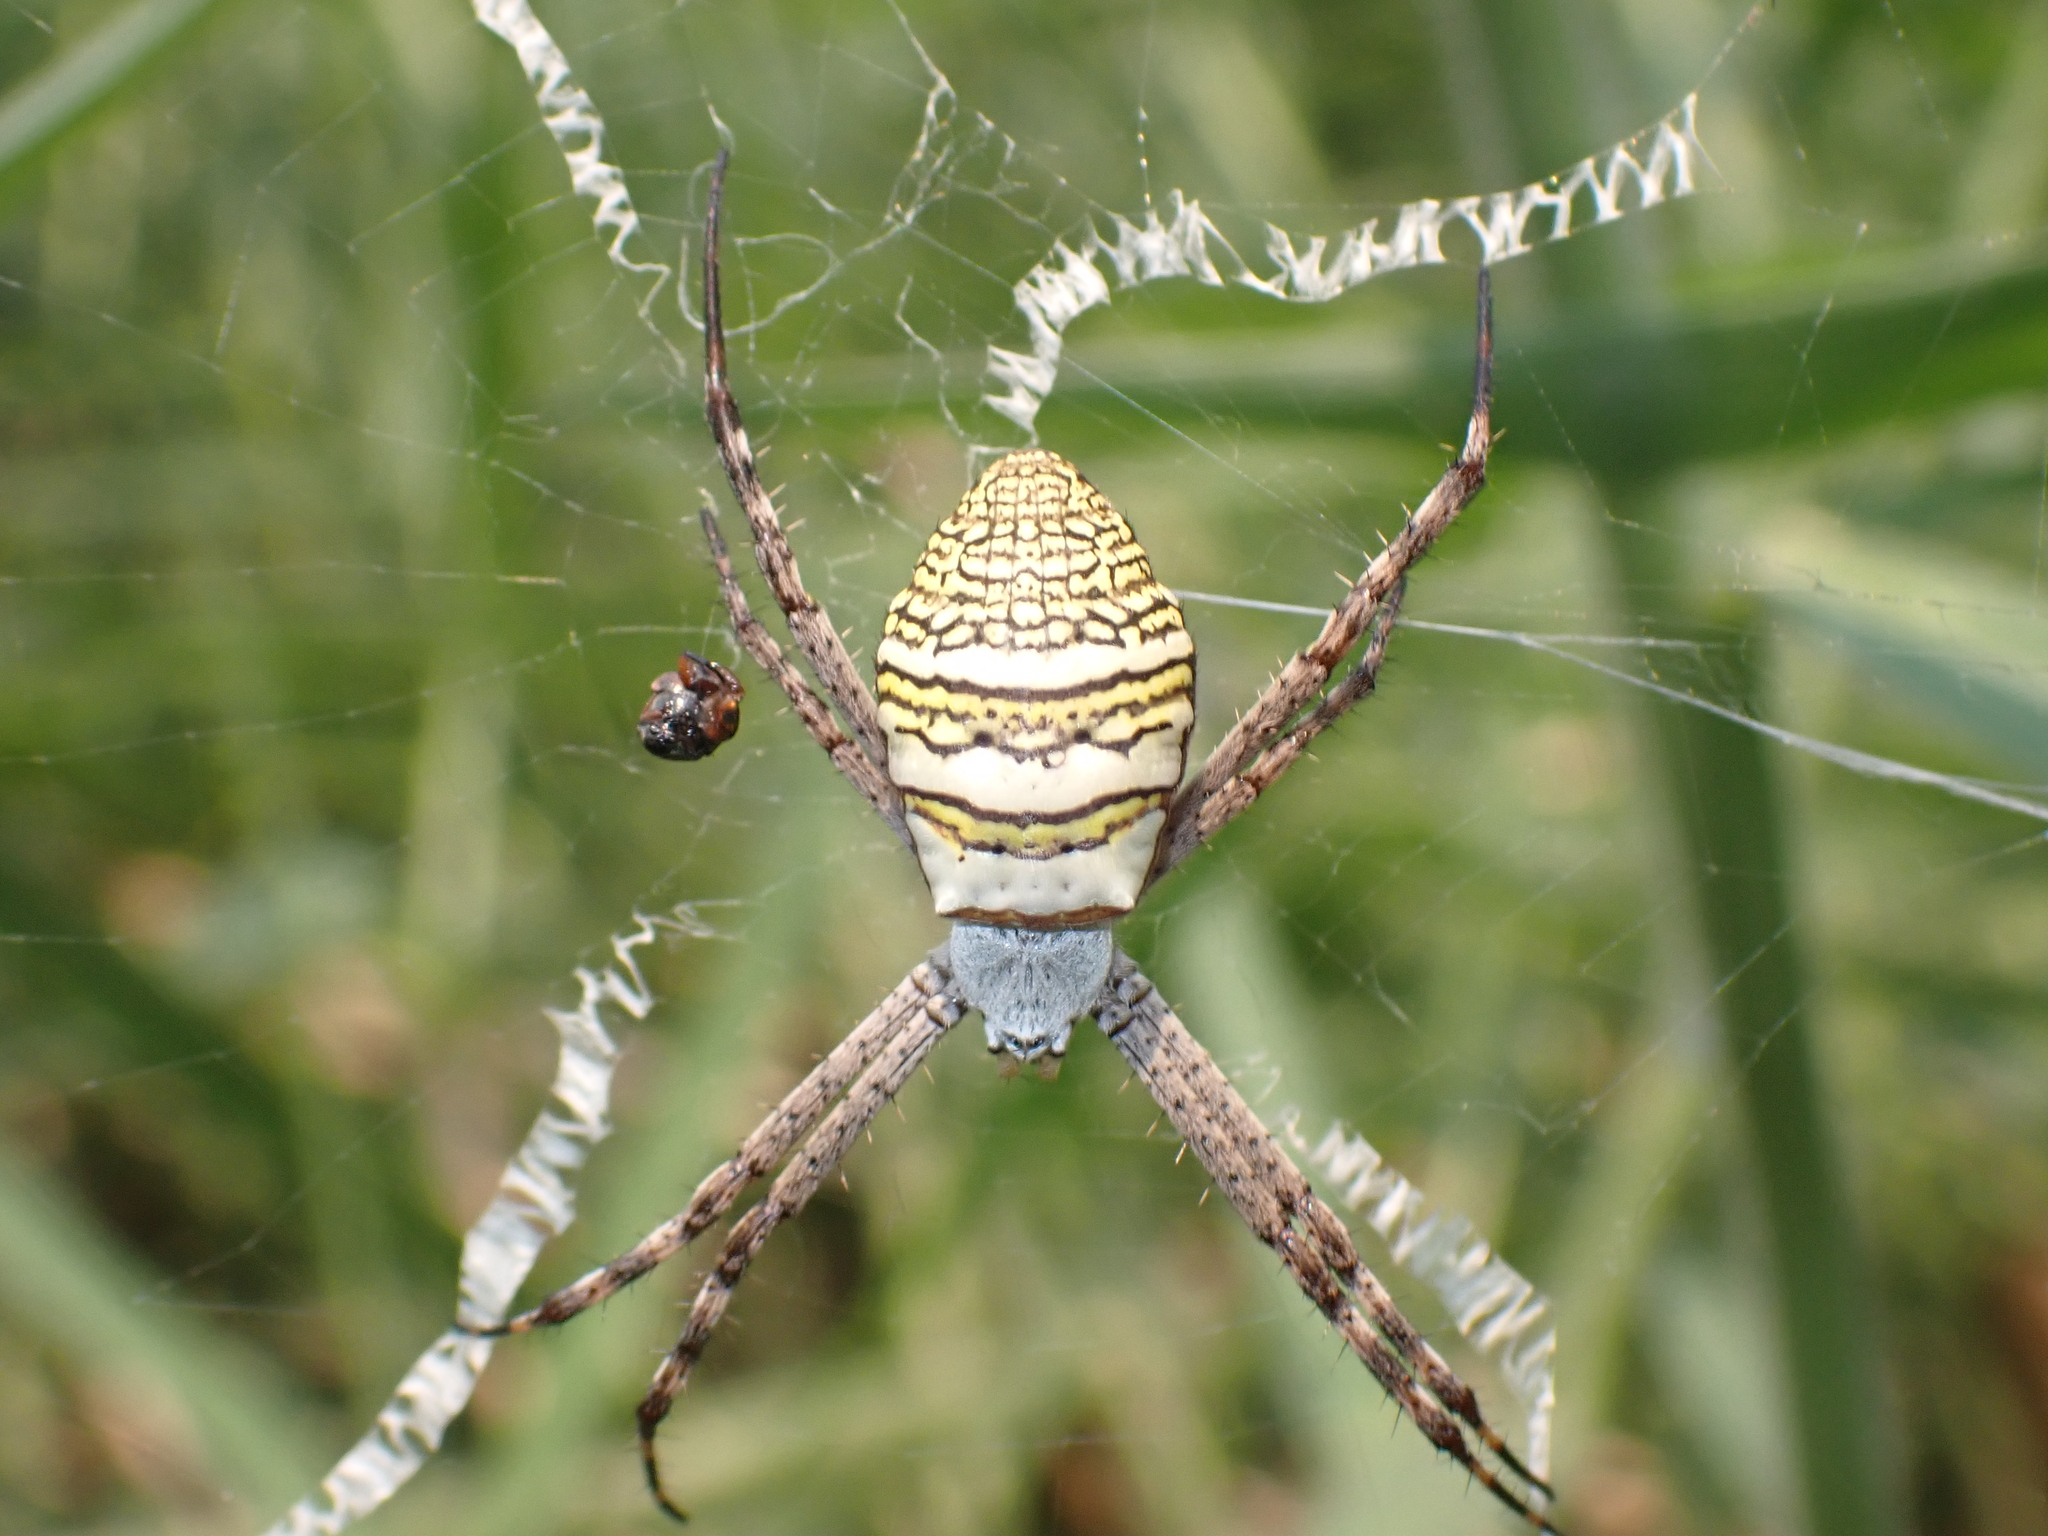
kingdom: Animalia
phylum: Arthropoda
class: Arachnida
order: Araneae
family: Araneidae
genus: Argiope
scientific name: Argiope aemula
